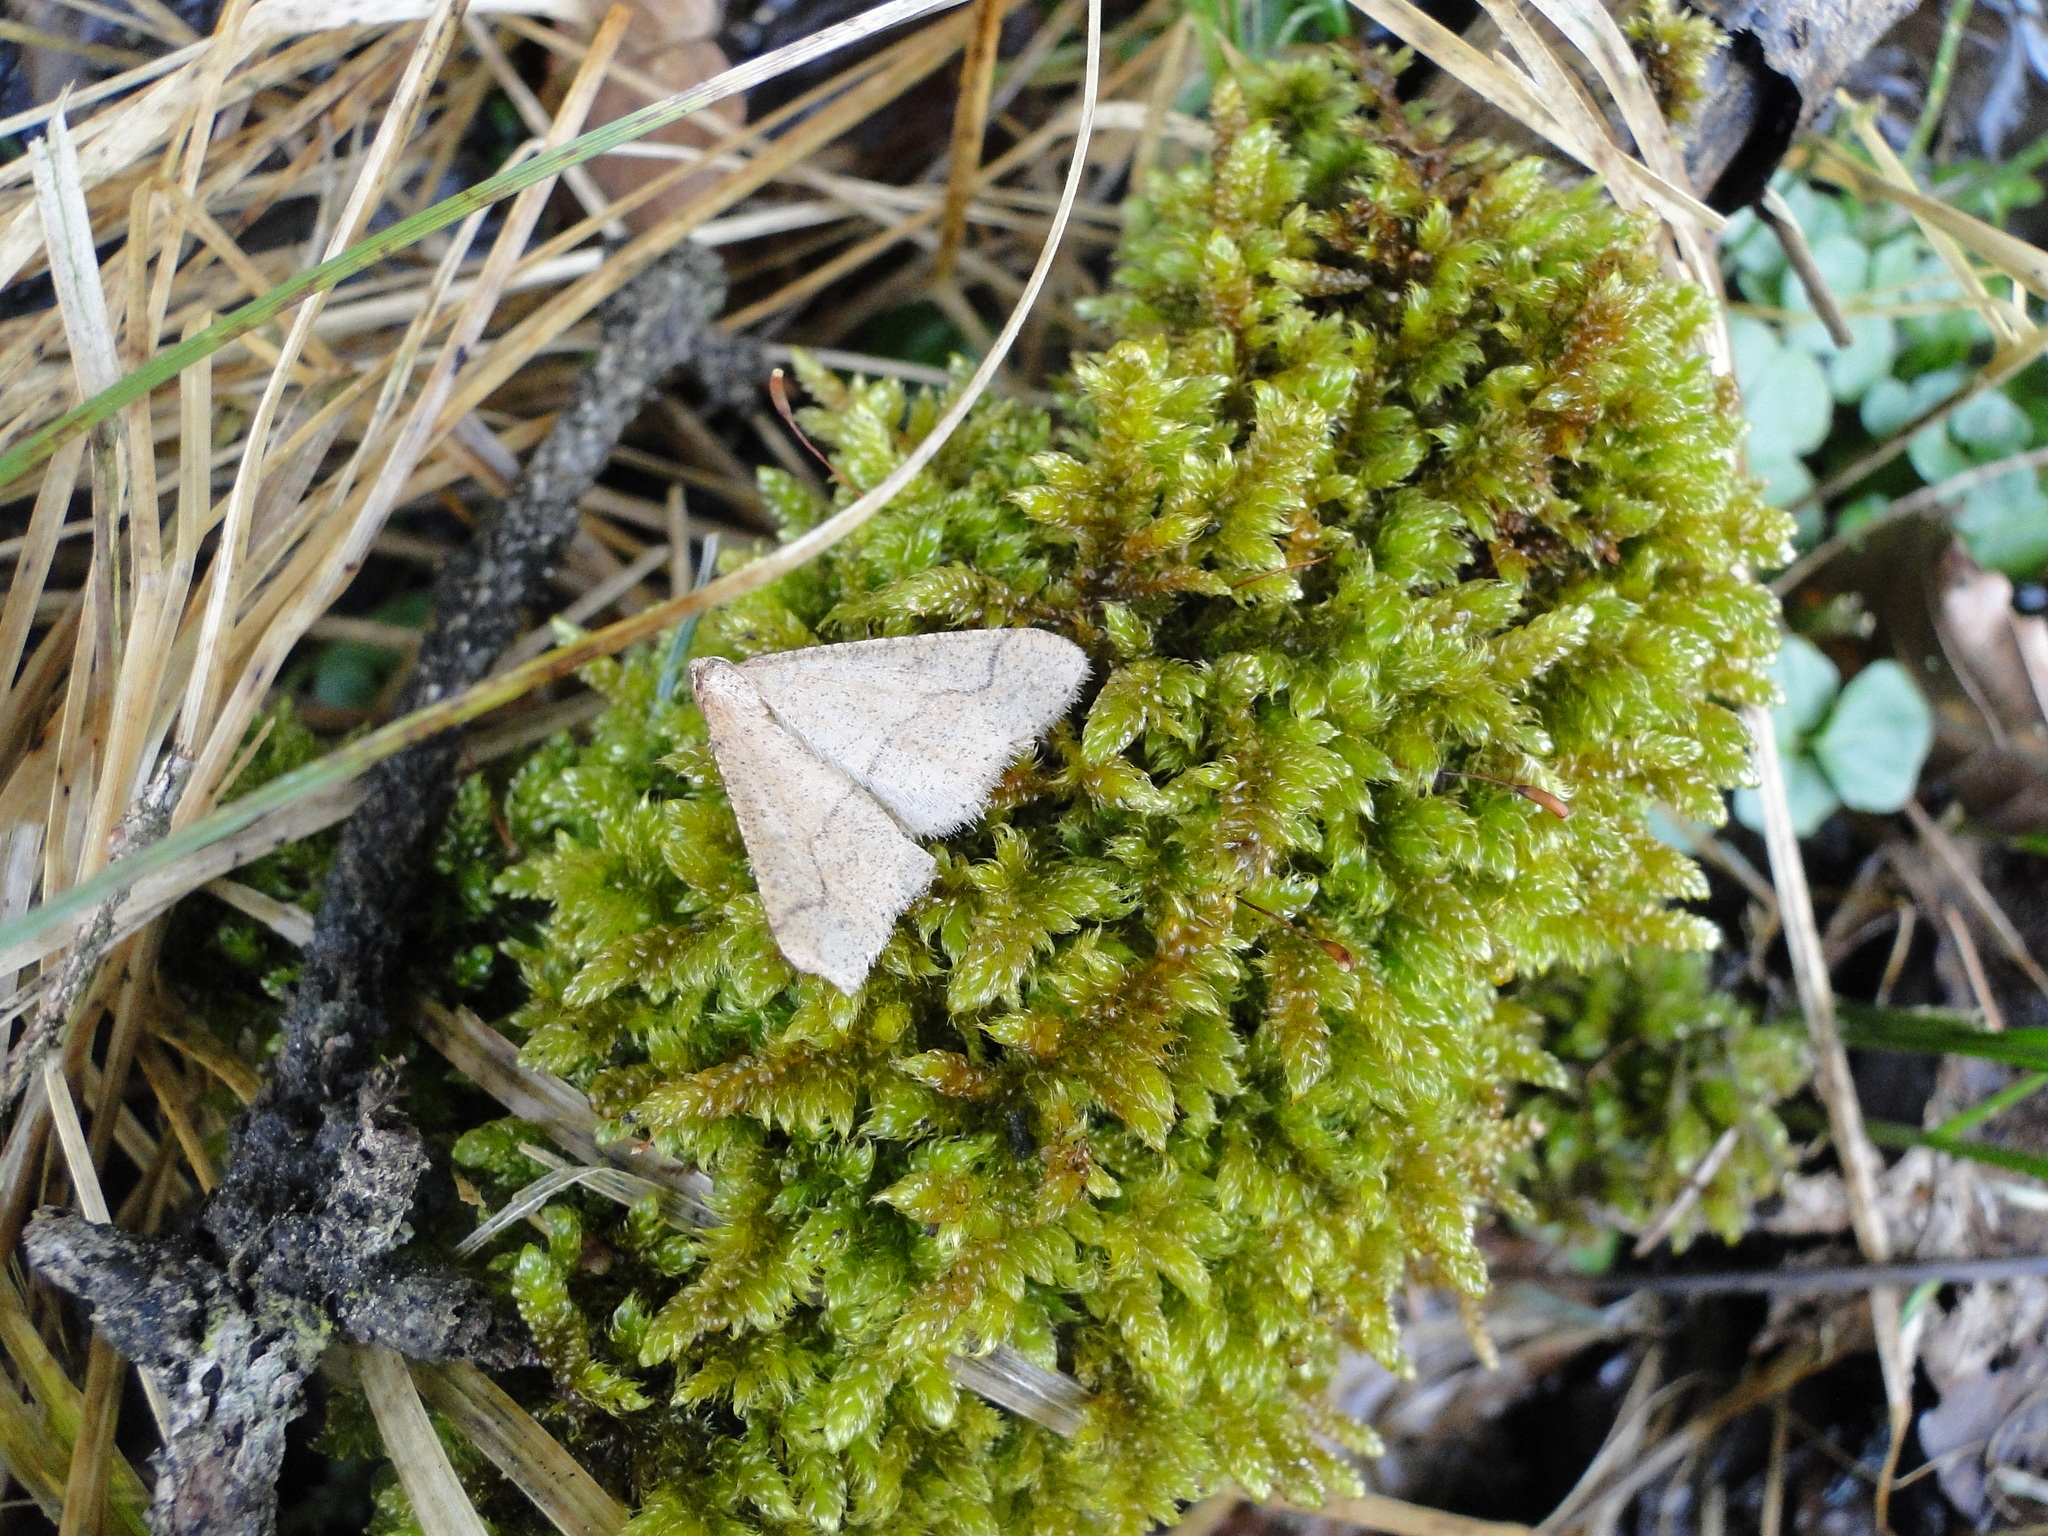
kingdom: Animalia
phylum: Arthropoda
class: Insecta
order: Lepidoptera
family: Geometridae
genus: Agriopis
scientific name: Agriopis marginaria
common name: Dotted border
